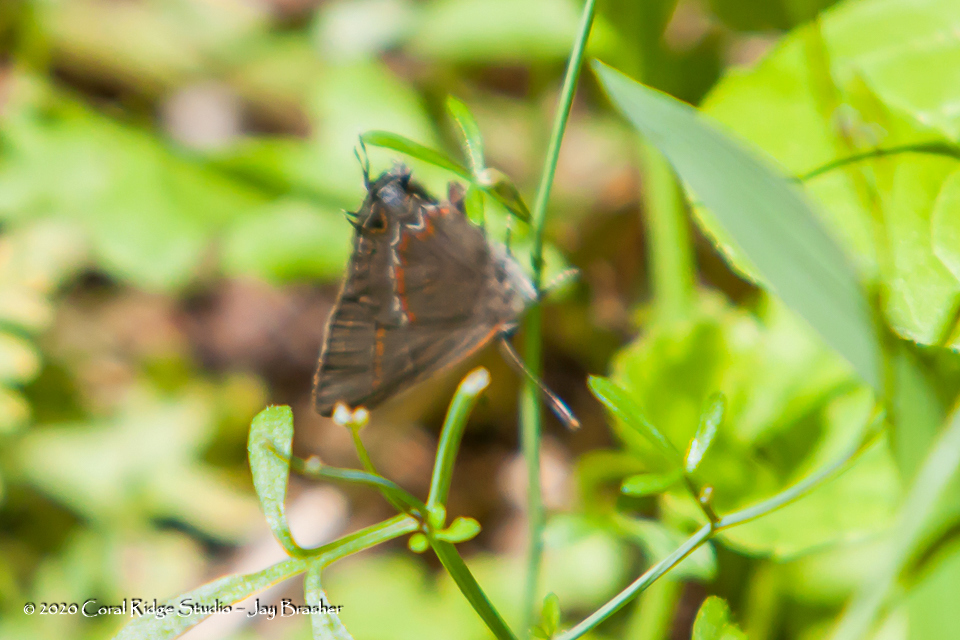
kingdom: Animalia
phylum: Arthropoda
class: Insecta
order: Lepidoptera
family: Lycaenidae
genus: Calycopis
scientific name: Calycopis cecrops
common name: Red-banded hairstreak
